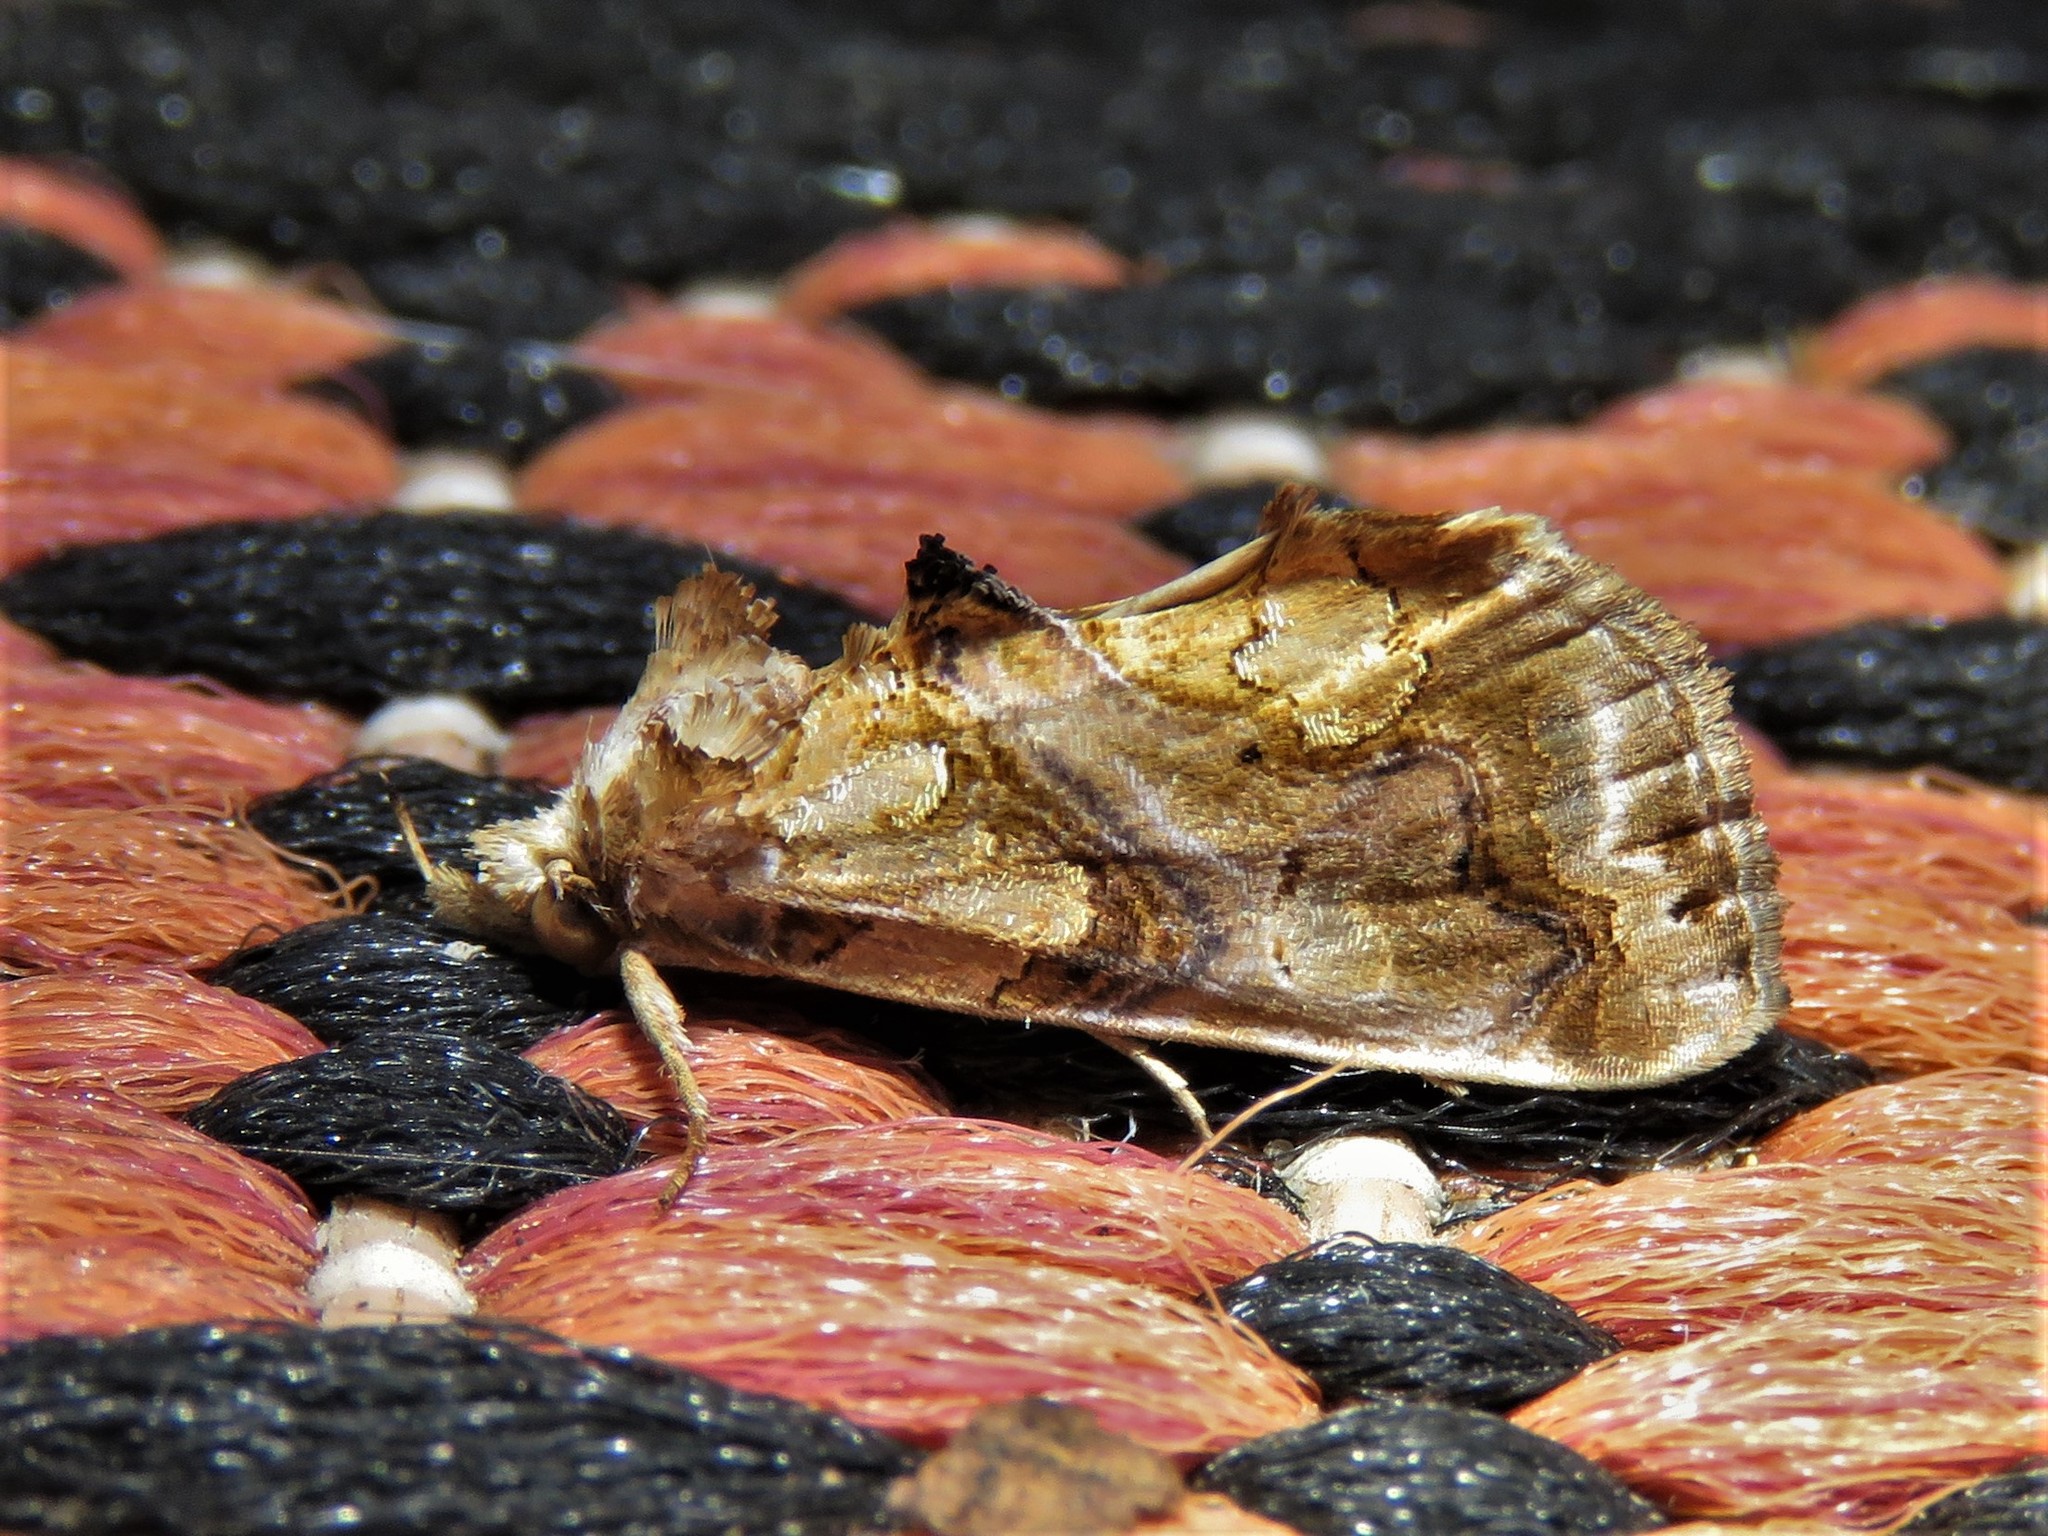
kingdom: Animalia
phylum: Arthropoda
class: Insecta
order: Lepidoptera
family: Erebidae
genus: Plusiodonta
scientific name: Plusiodonta compressipalpis
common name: Moonseed moth
